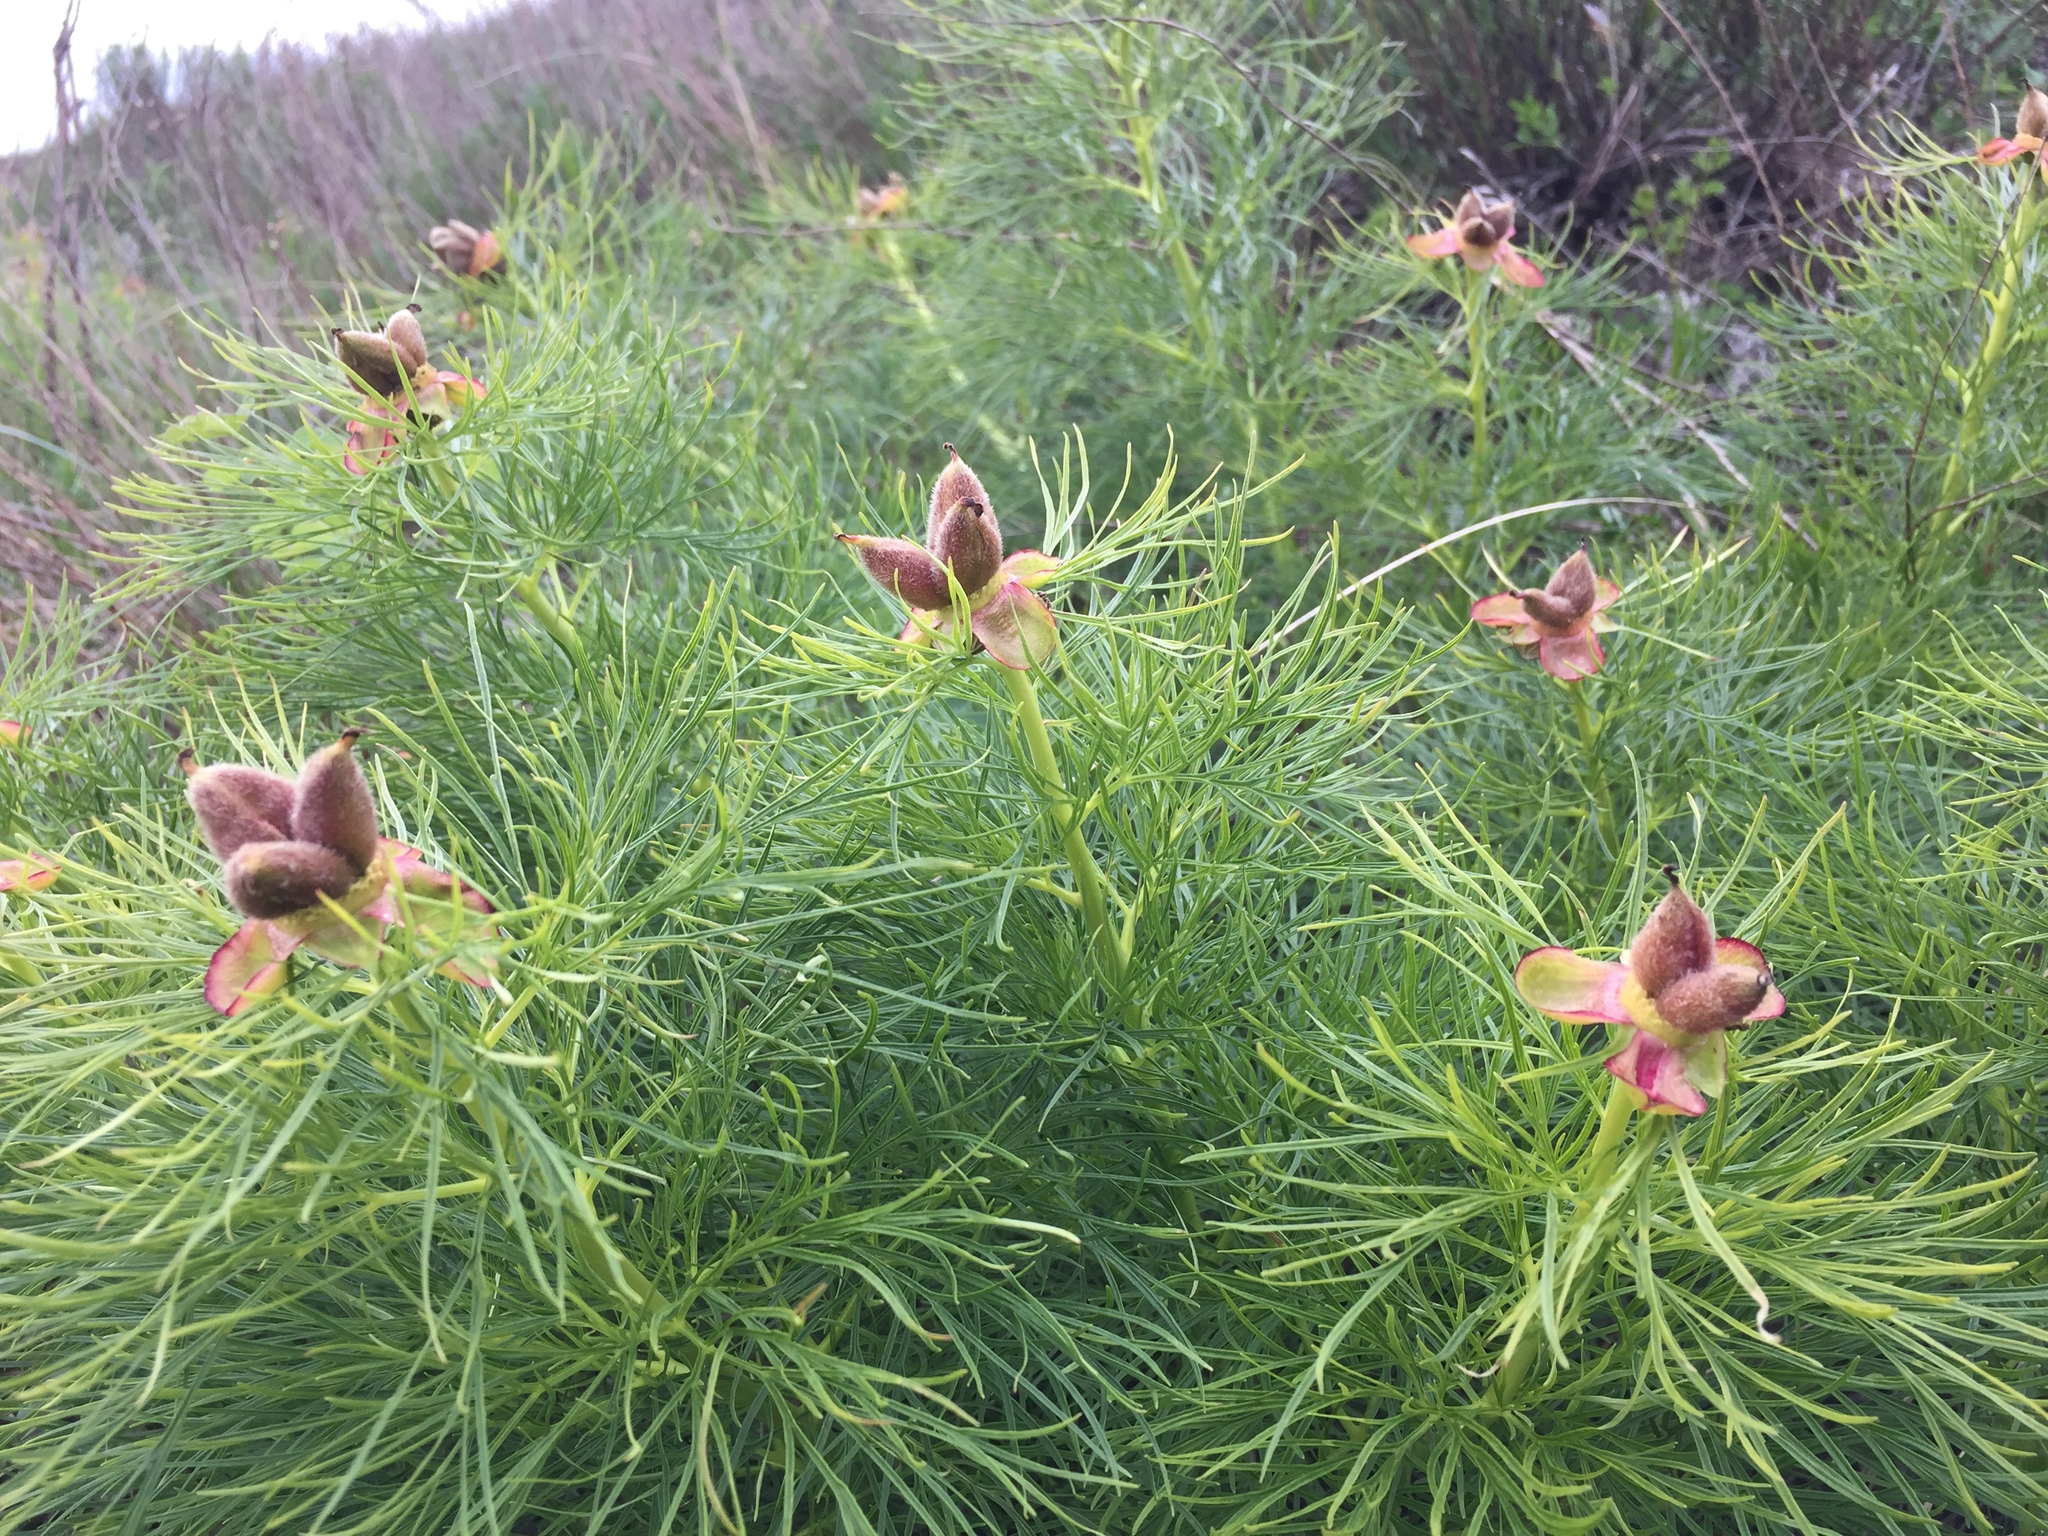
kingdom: Plantae
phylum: Tracheophyta
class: Magnoliopsida
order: Saxifragales
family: Paeoniaceae
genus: Paeonia
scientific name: Paeonia tenuifolia
